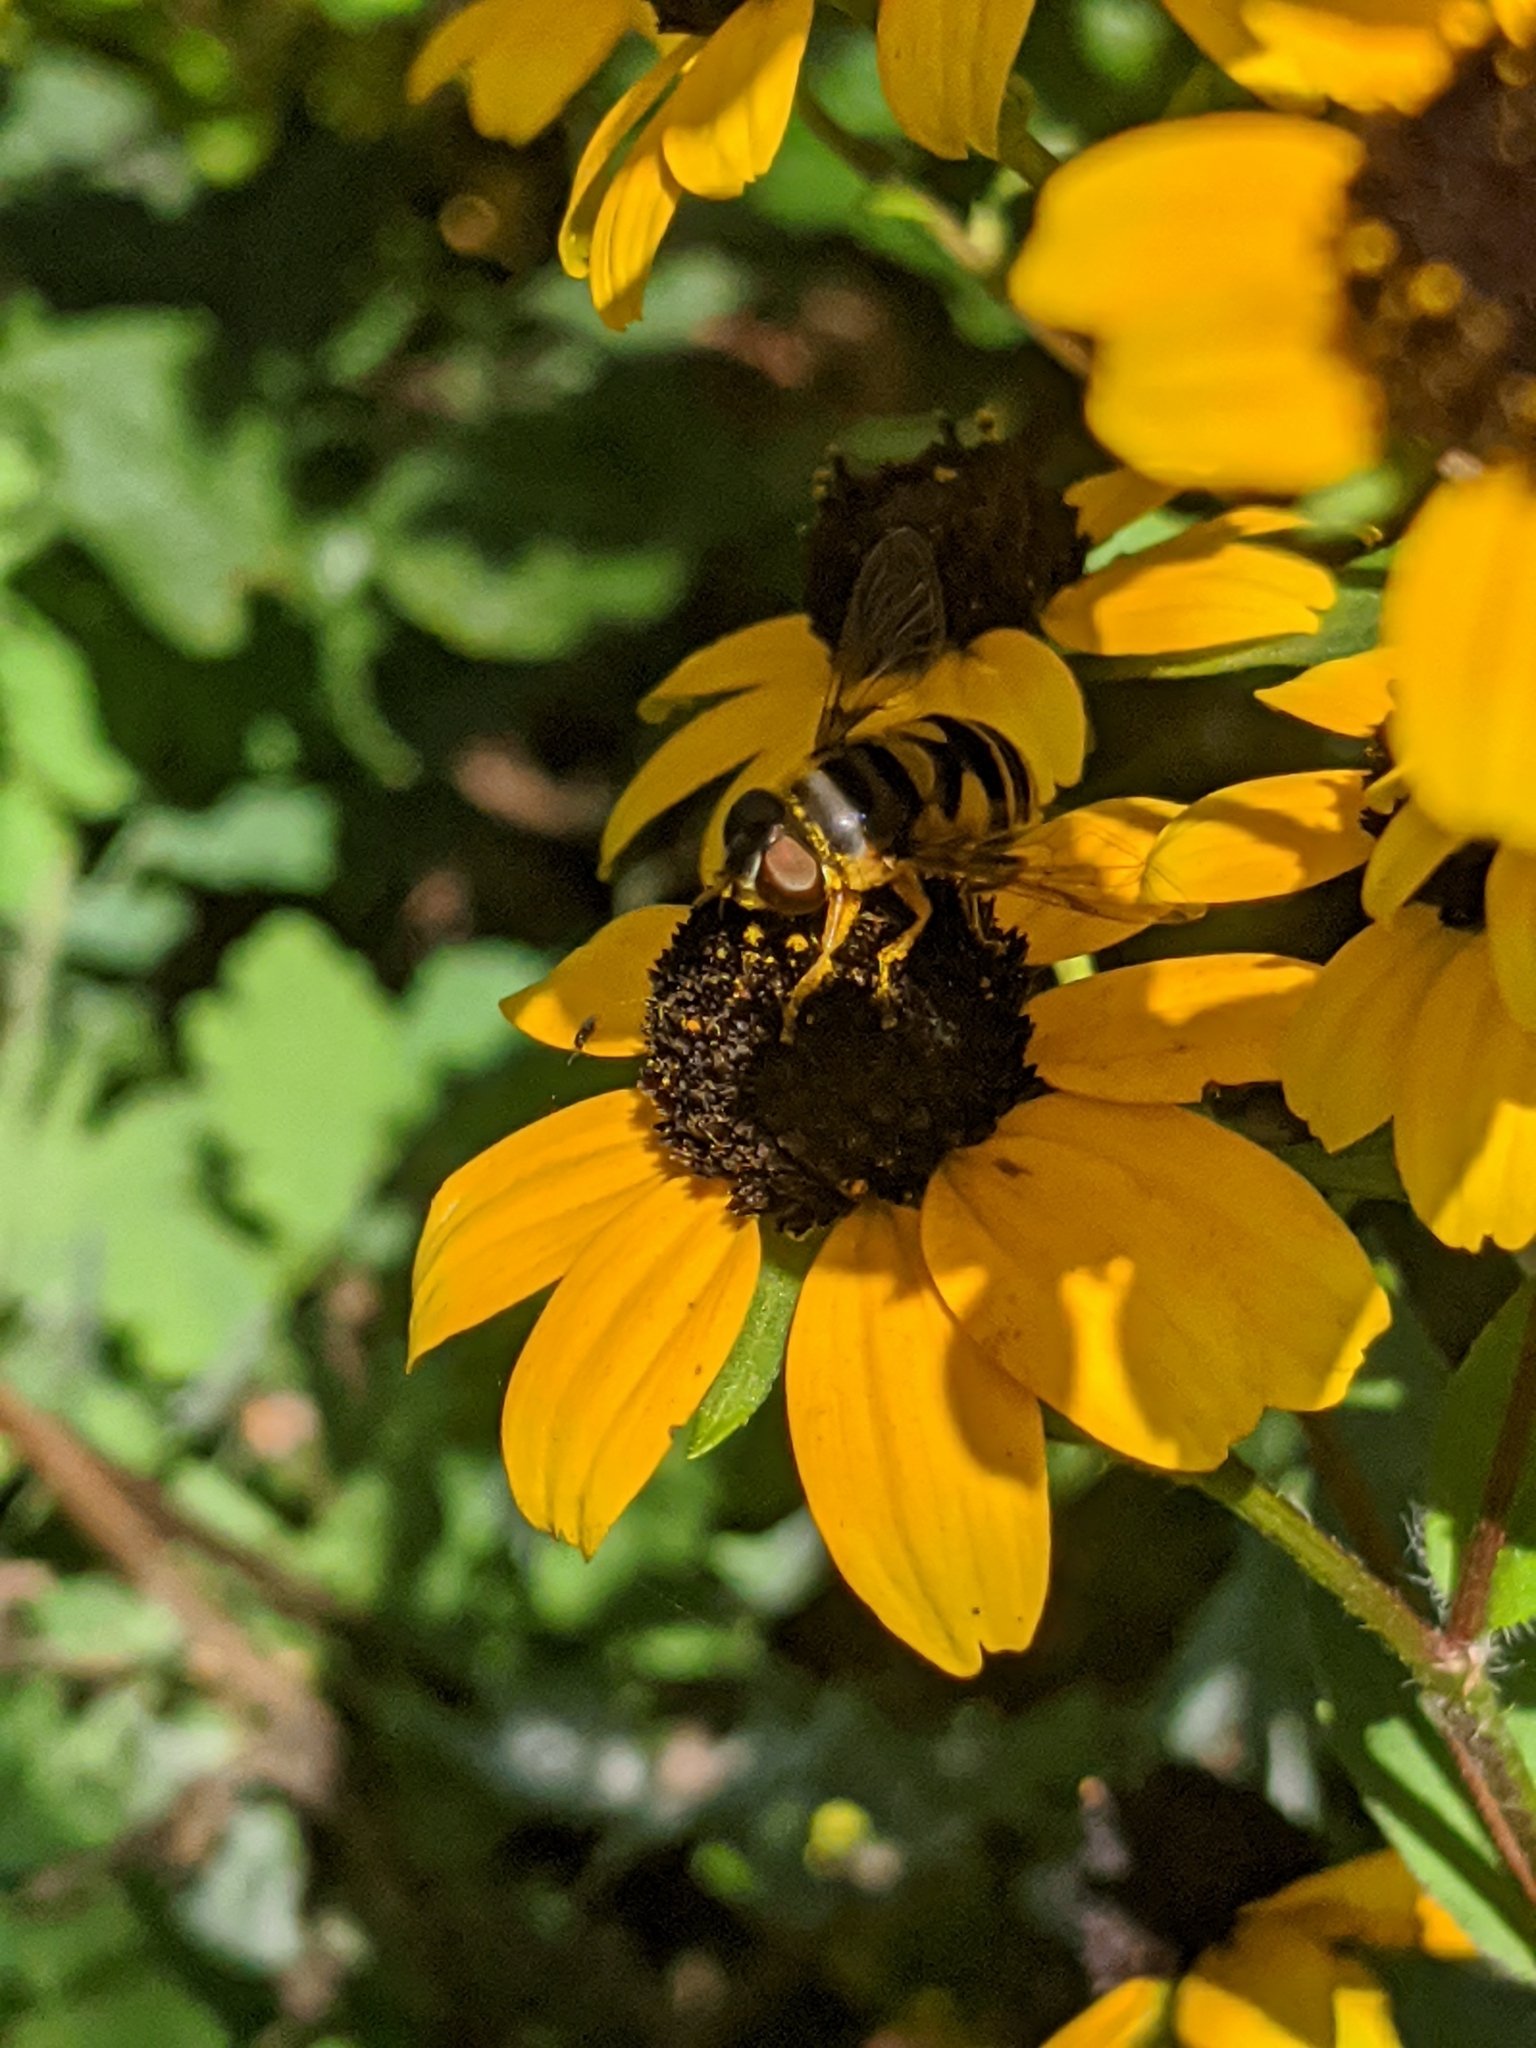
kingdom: Animalia
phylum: Arthropoda
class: Insecta
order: Diptera
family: Syrphidae
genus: Eristalis
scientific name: Eristalis transversa
